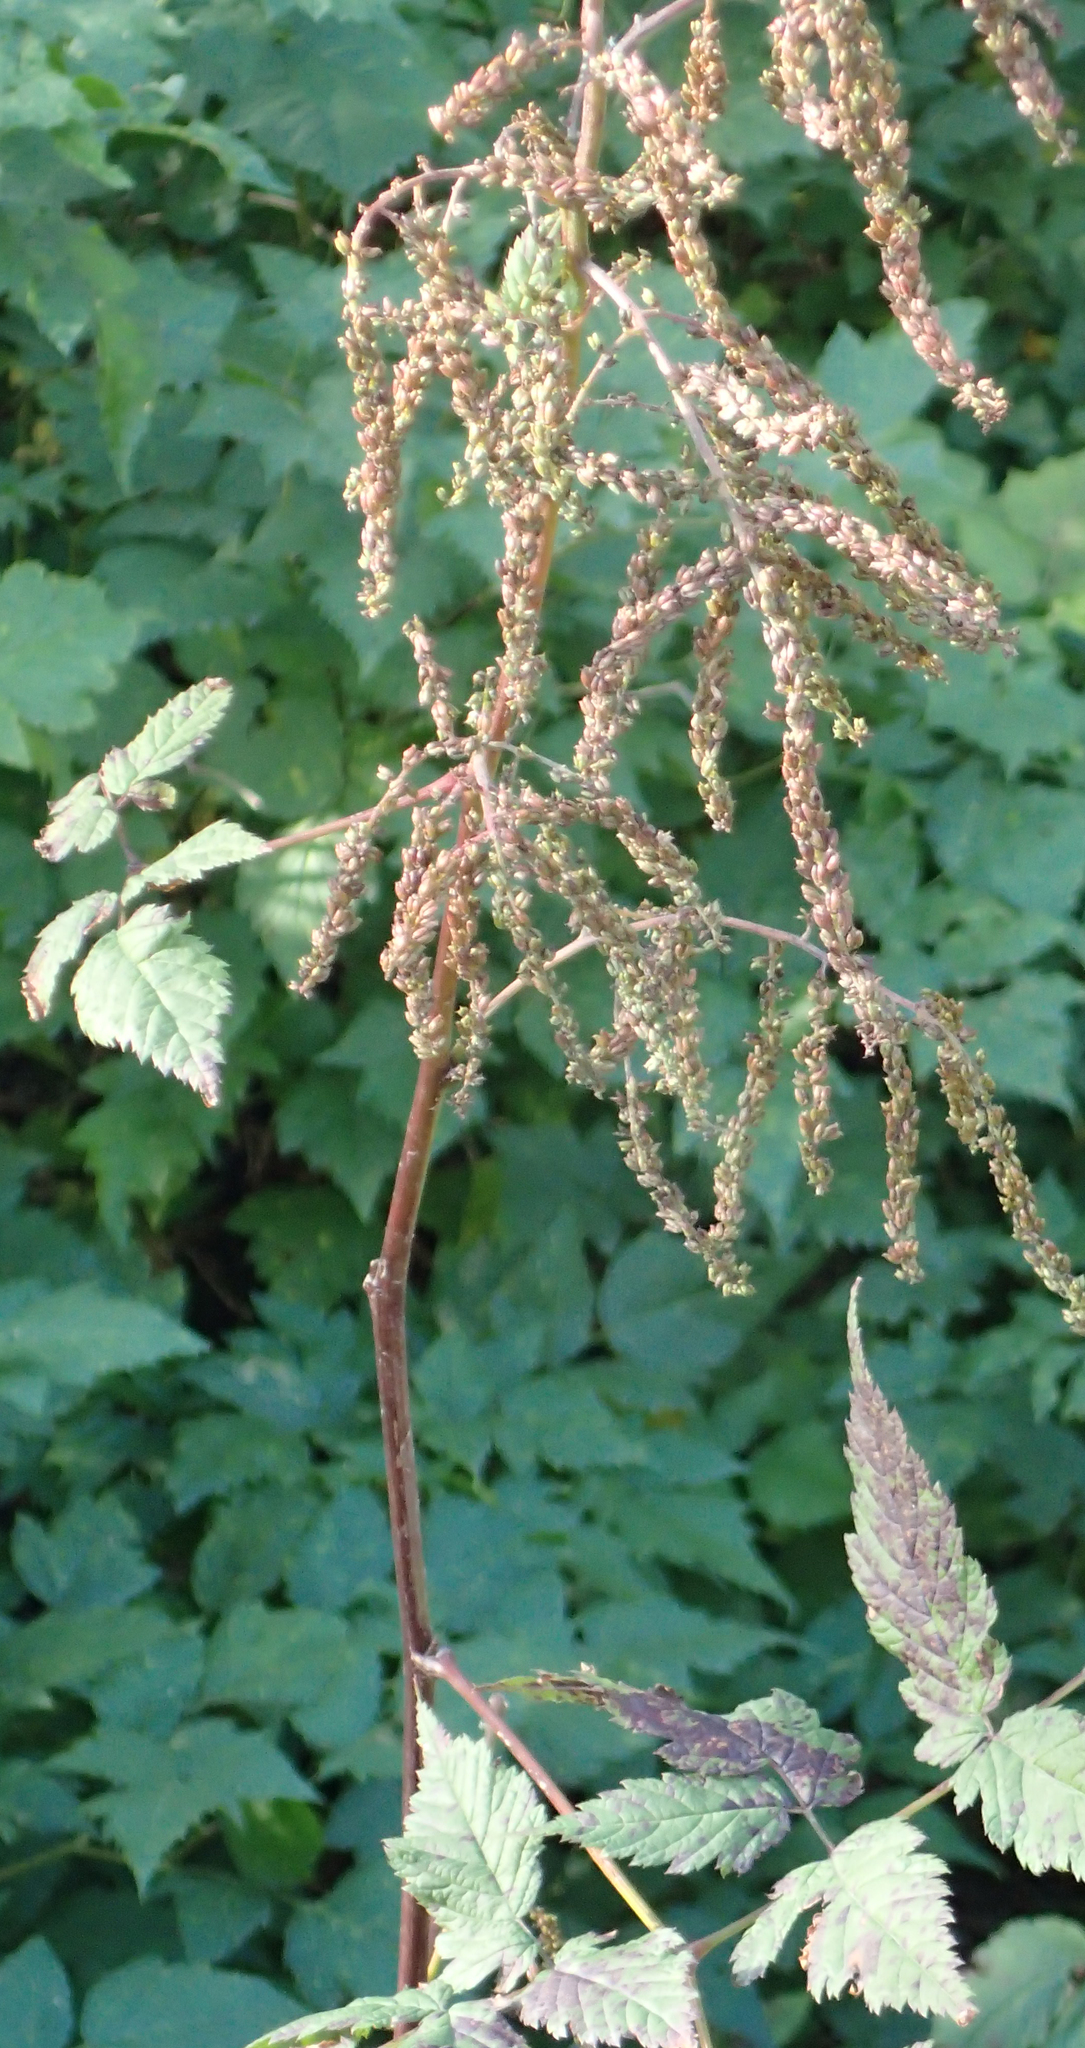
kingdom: Plantae
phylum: Tracheophyta
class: Magnoliopsida
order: Rosales
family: Rosaceae
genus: Aruncus
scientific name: Aruncus dioicus
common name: Buck's-beard
